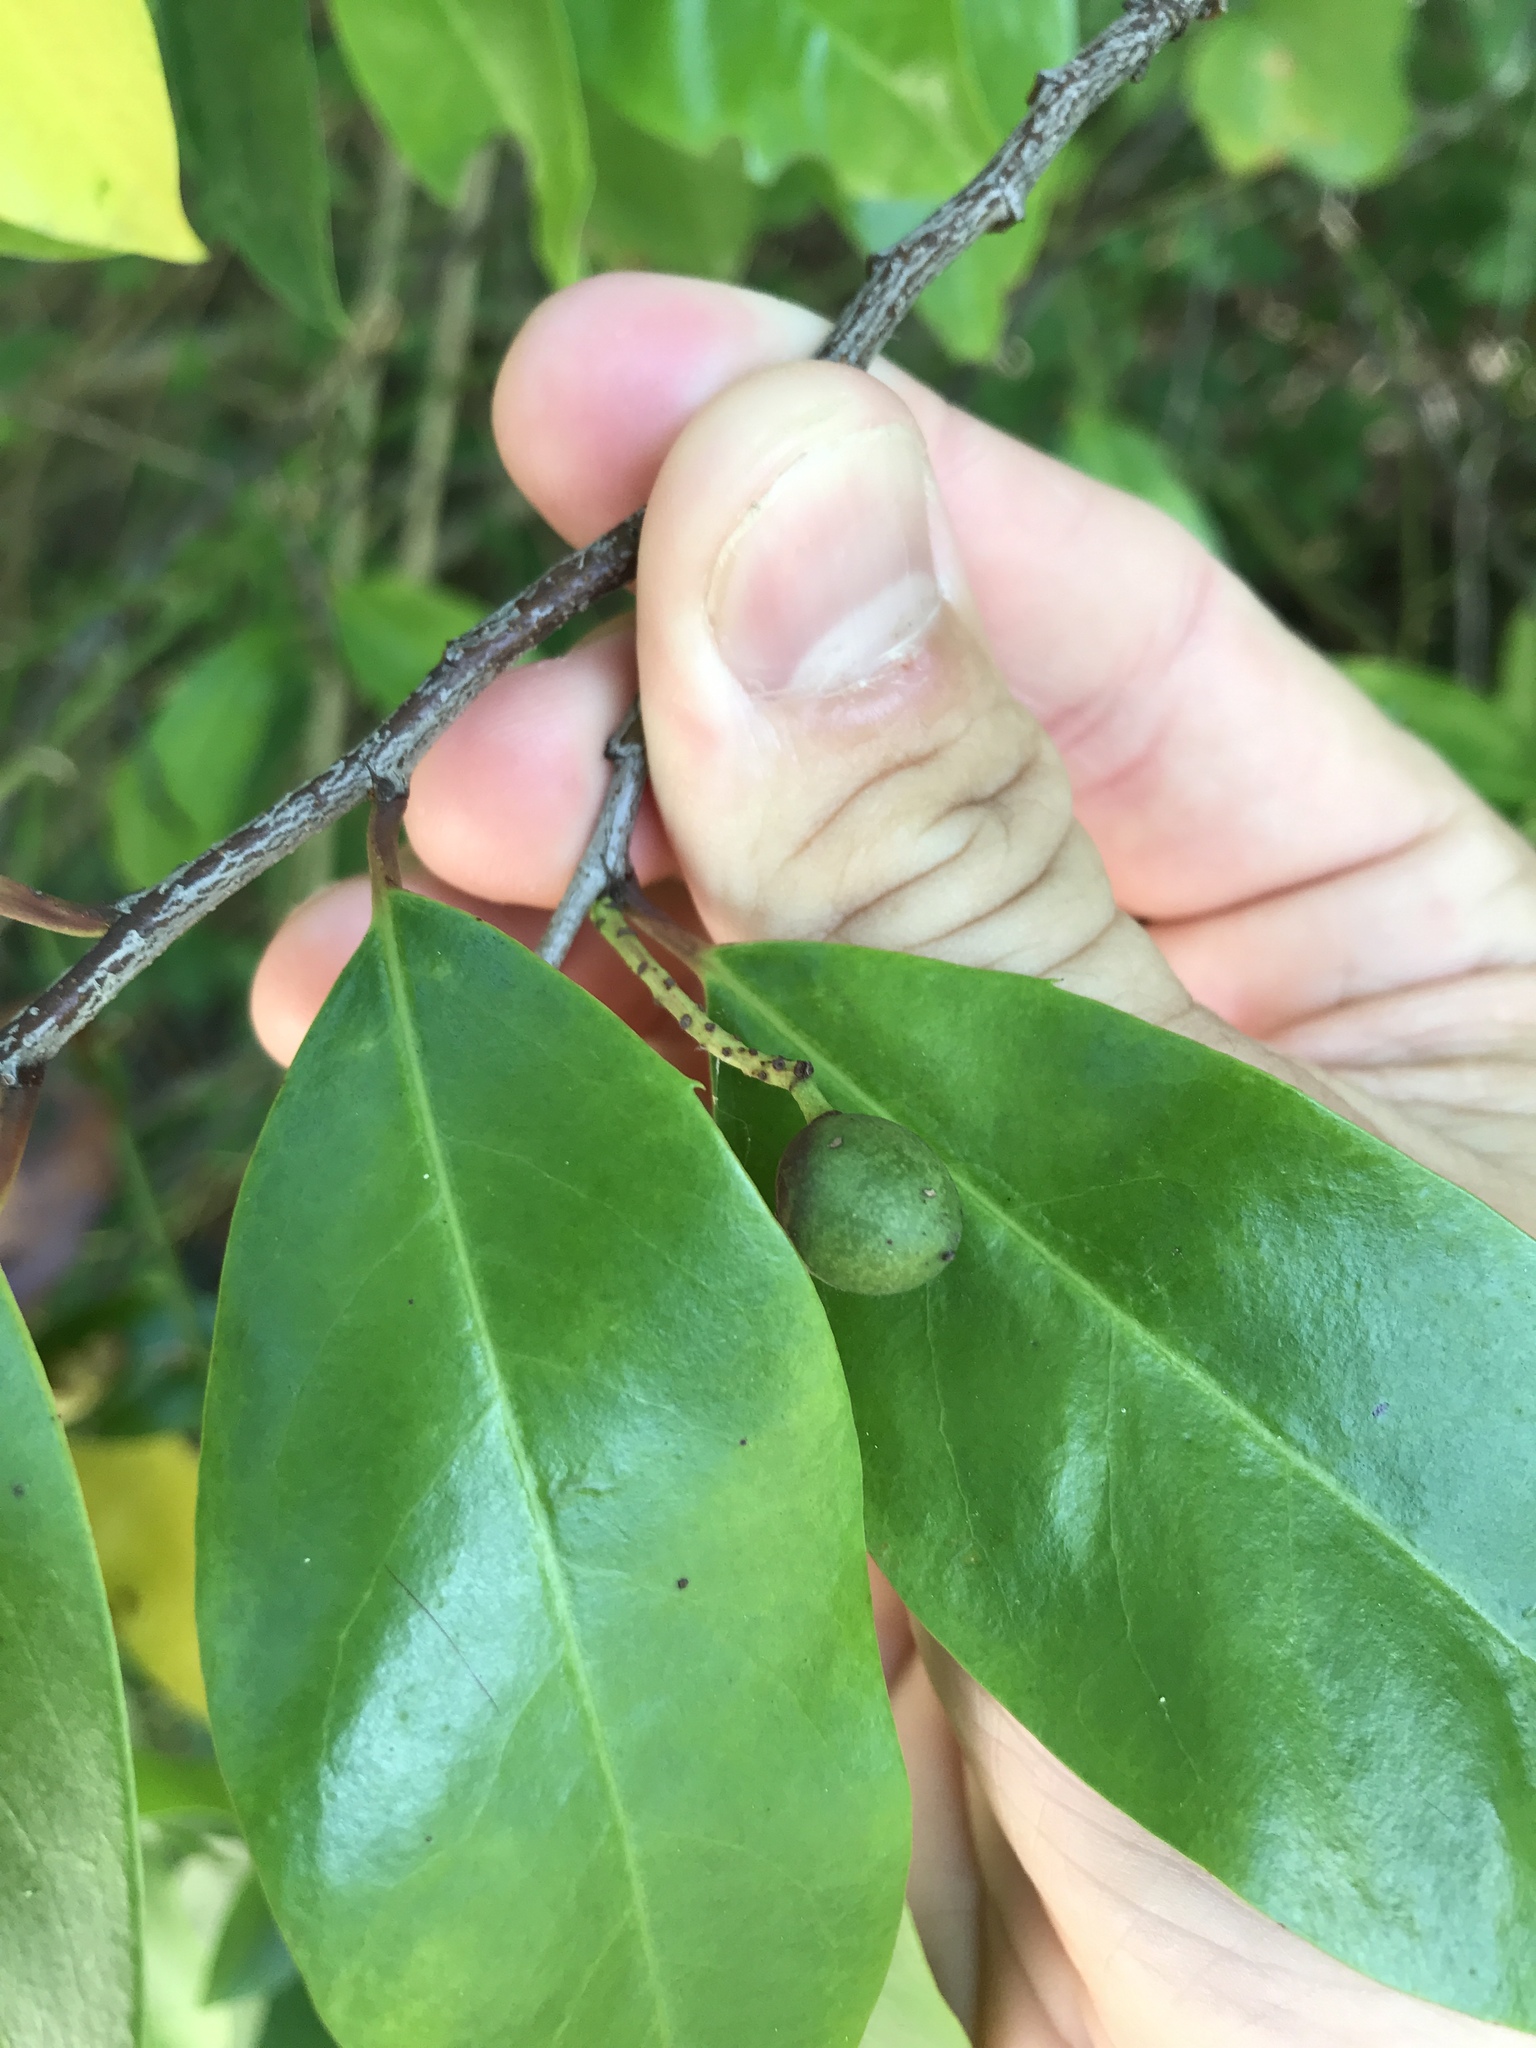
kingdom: Plantae
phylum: Tracheophyta
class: Magnoliopsida
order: Rosales
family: Rosaceae
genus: Prunus
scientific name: Prunus caroliniana
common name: Carolina laurel cherry
